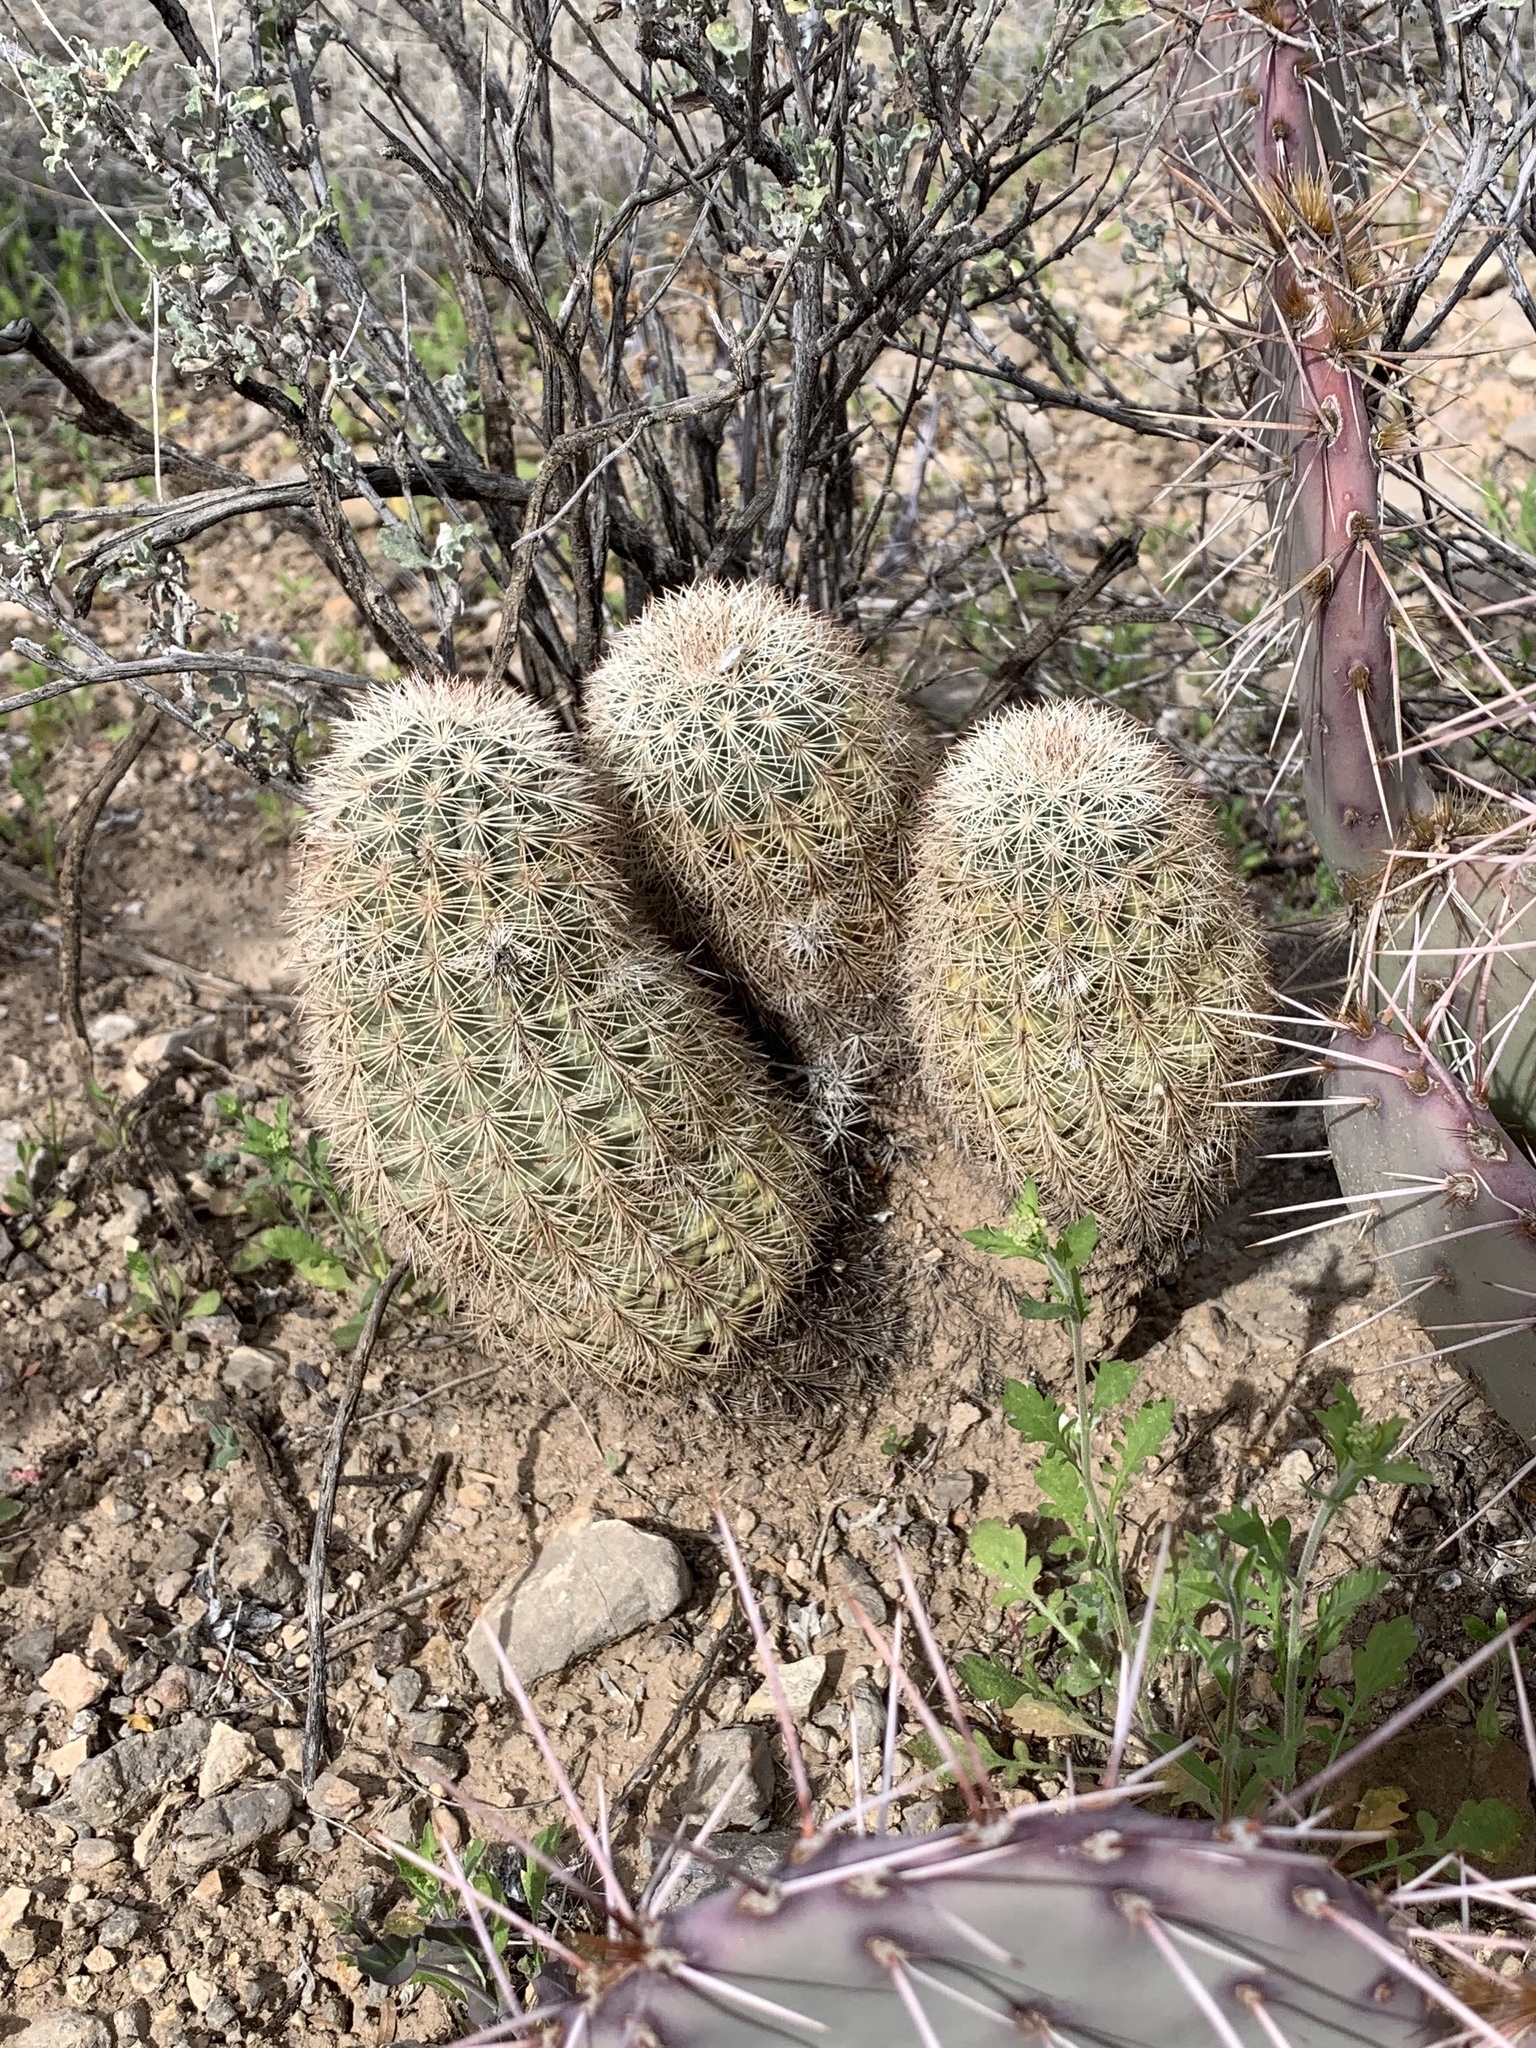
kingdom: Plantae
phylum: Tracheophyta
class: Magnoliopsida
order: Caryophyllales
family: Cactaceae
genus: Echinocereus
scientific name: Echinocereus dasyacanthus
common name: Spiny hedgehog cactus
